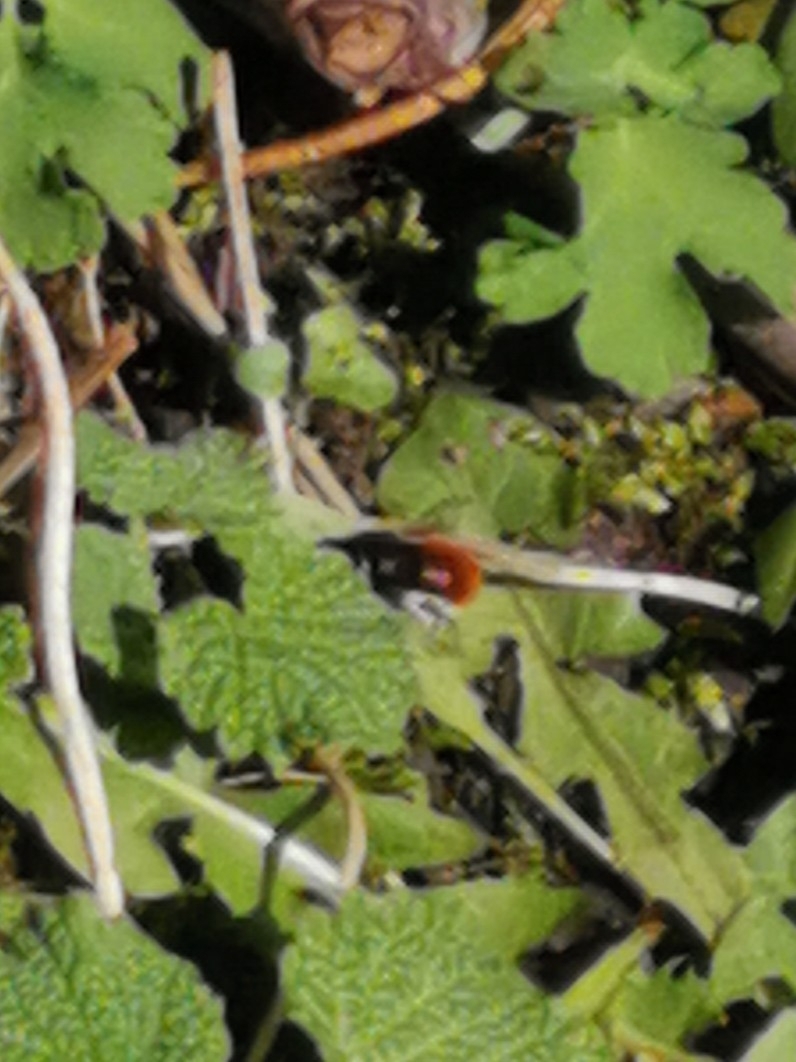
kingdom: Animalia
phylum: Arthropoda
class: Insecta
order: Hymenoptera
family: Megachilidae
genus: Osmia
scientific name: Osmia cornuta
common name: Mason bee
